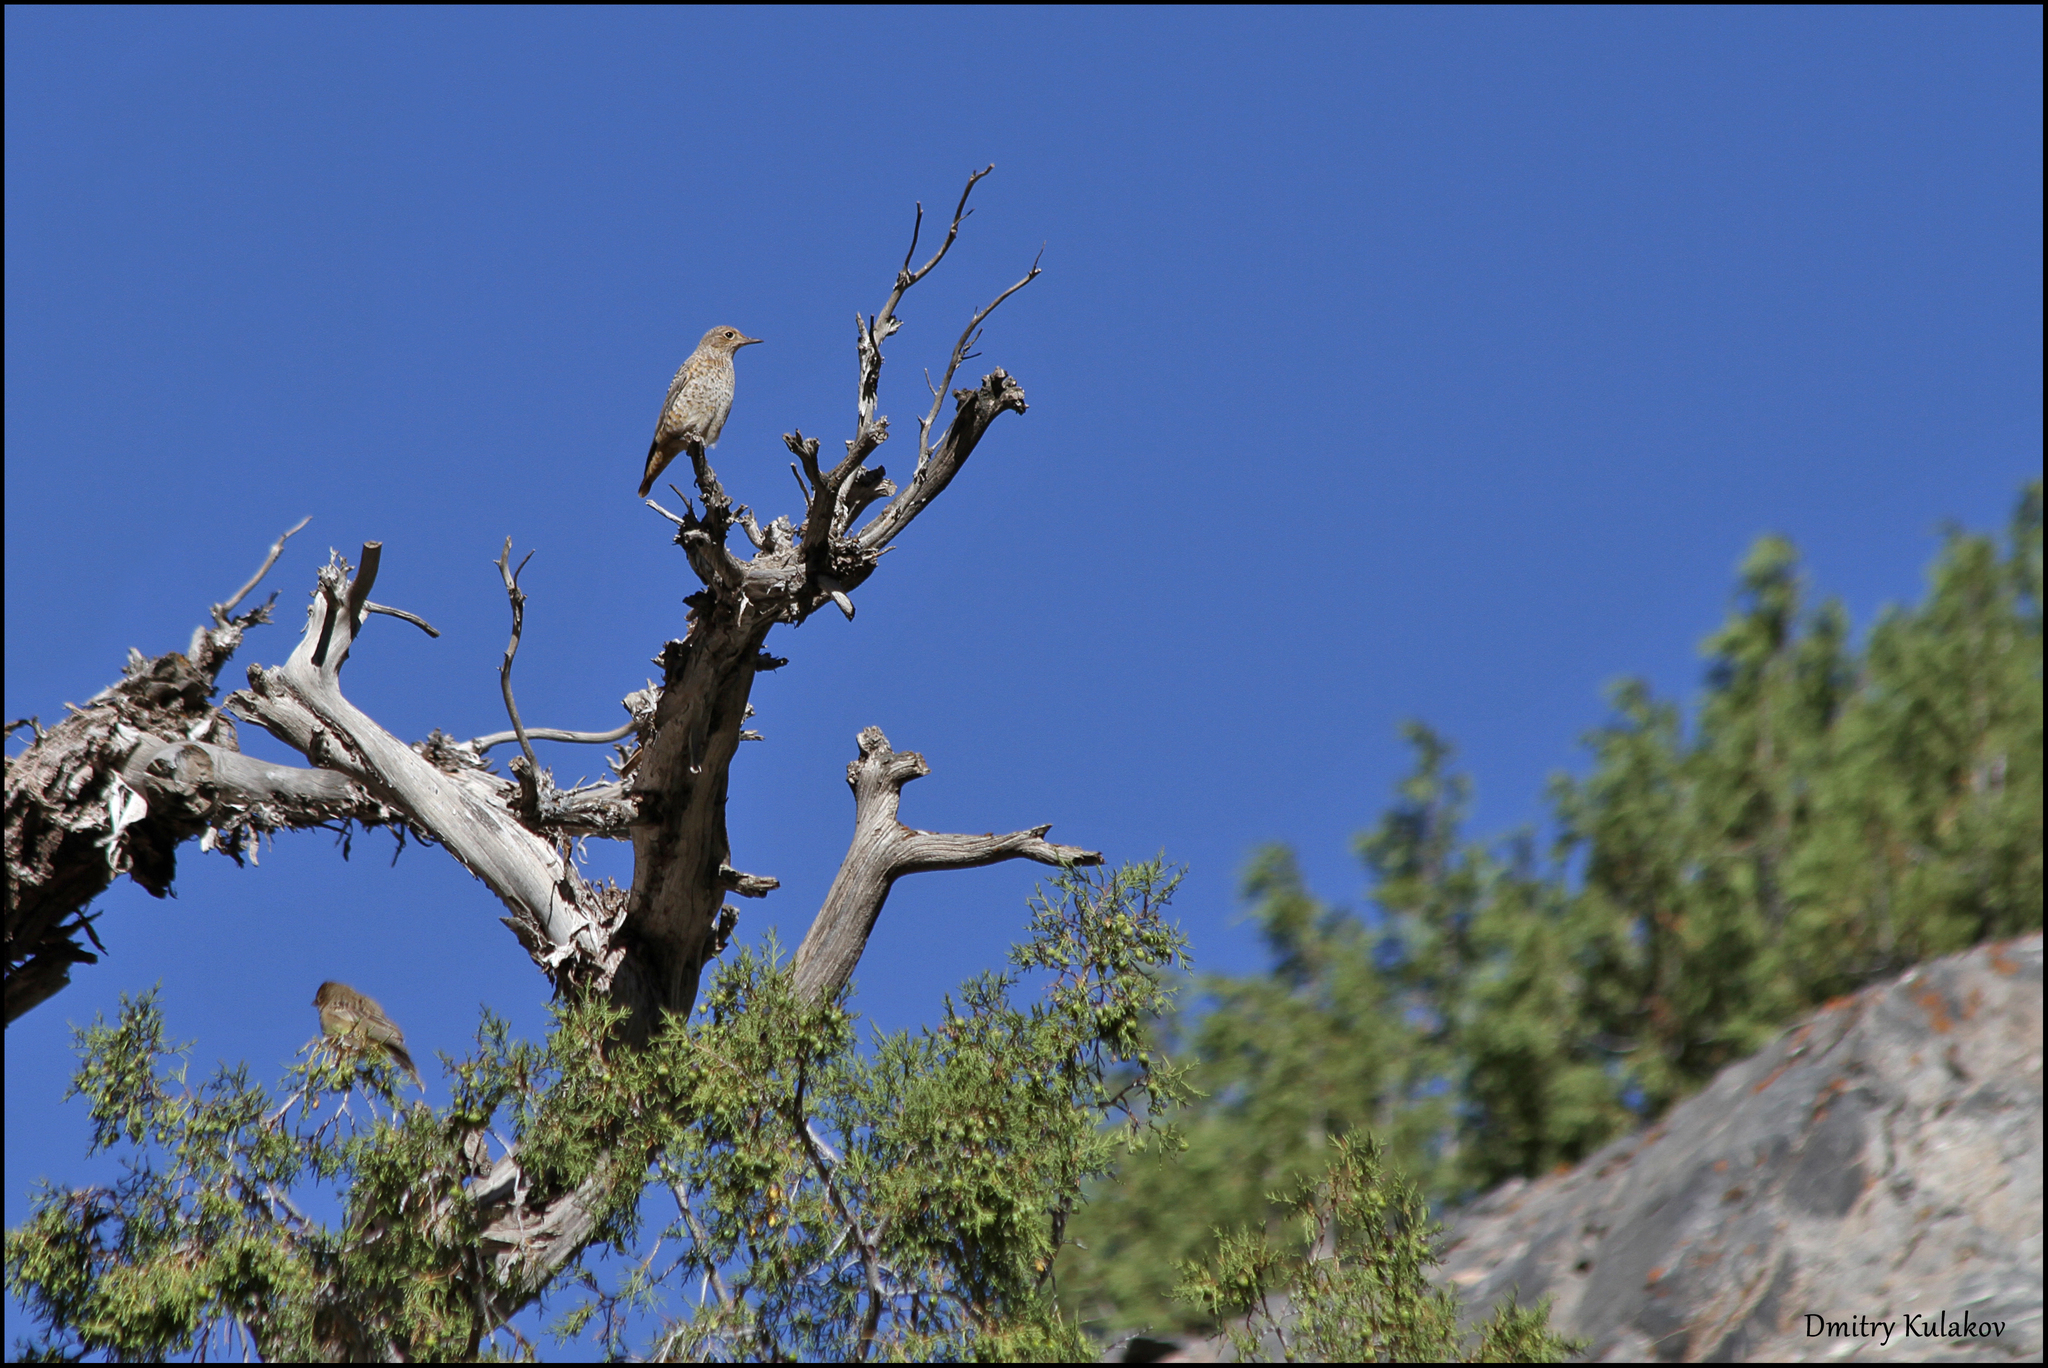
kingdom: Animalia
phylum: Chordata
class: Aves
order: Passeriformes
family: Muscicapidae
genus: Monticola
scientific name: Monticola saxatilis
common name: Rufous-tailed rock thrush
